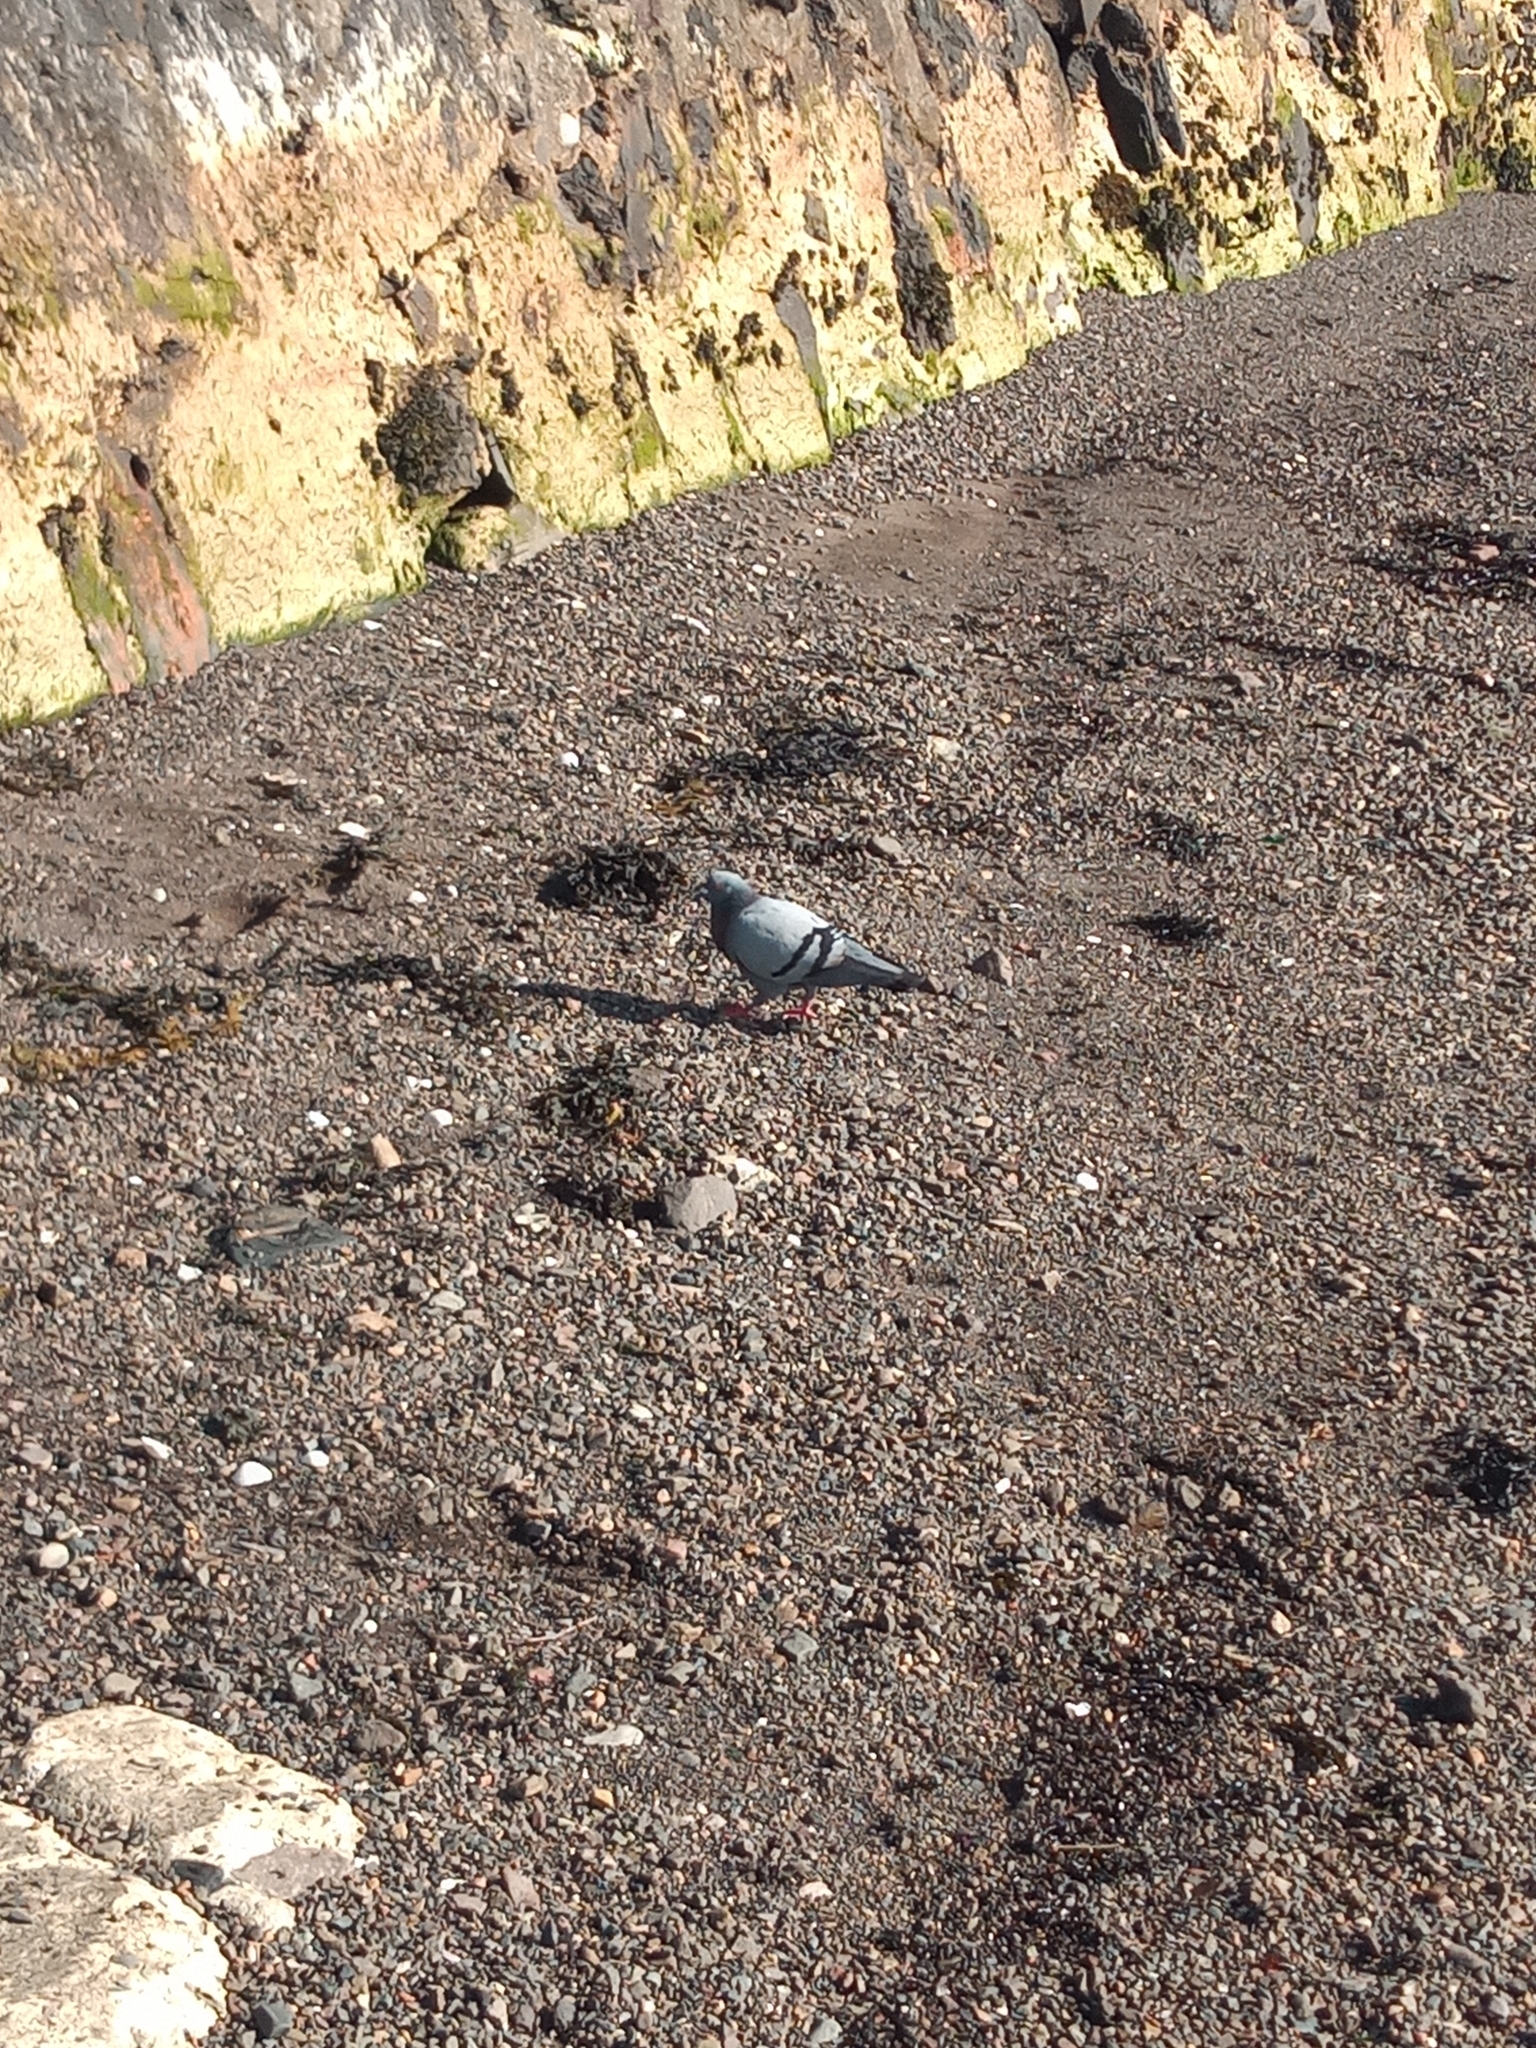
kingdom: Animalia
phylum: Chordata
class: Aves
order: Columbiformes
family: Columbidae
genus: Columba
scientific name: Columba livia
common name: Rock pigeon
